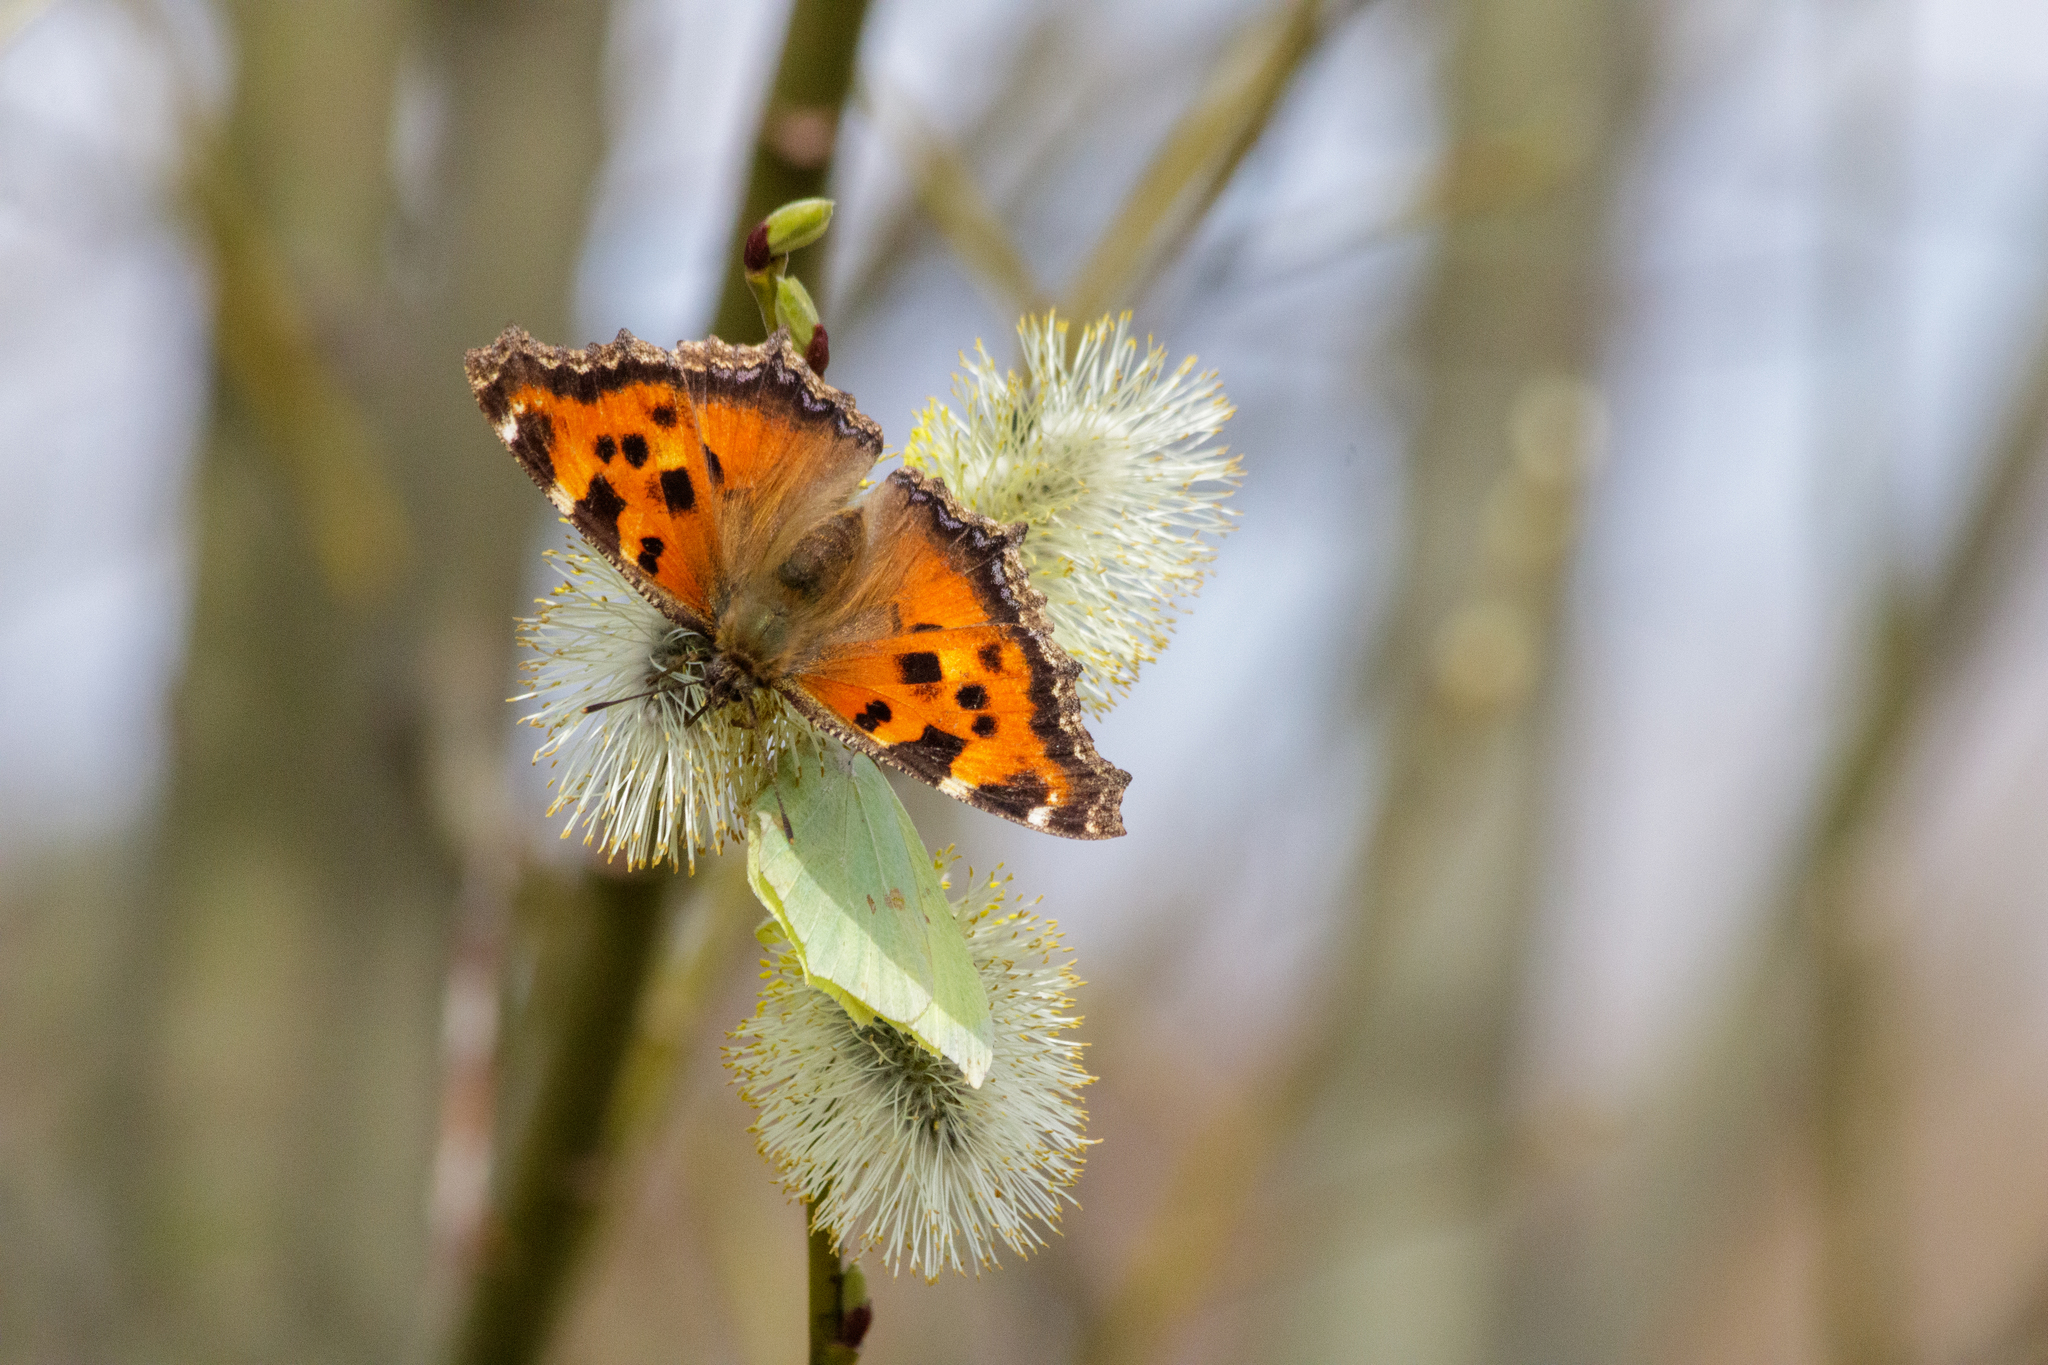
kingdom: Animalia
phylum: Arthropoda
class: Insecta
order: Lepidoptera
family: Nymphalidae
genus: Nymphalis
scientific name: Nymphalis xanthomelas
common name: Scarce tortoiseshell
